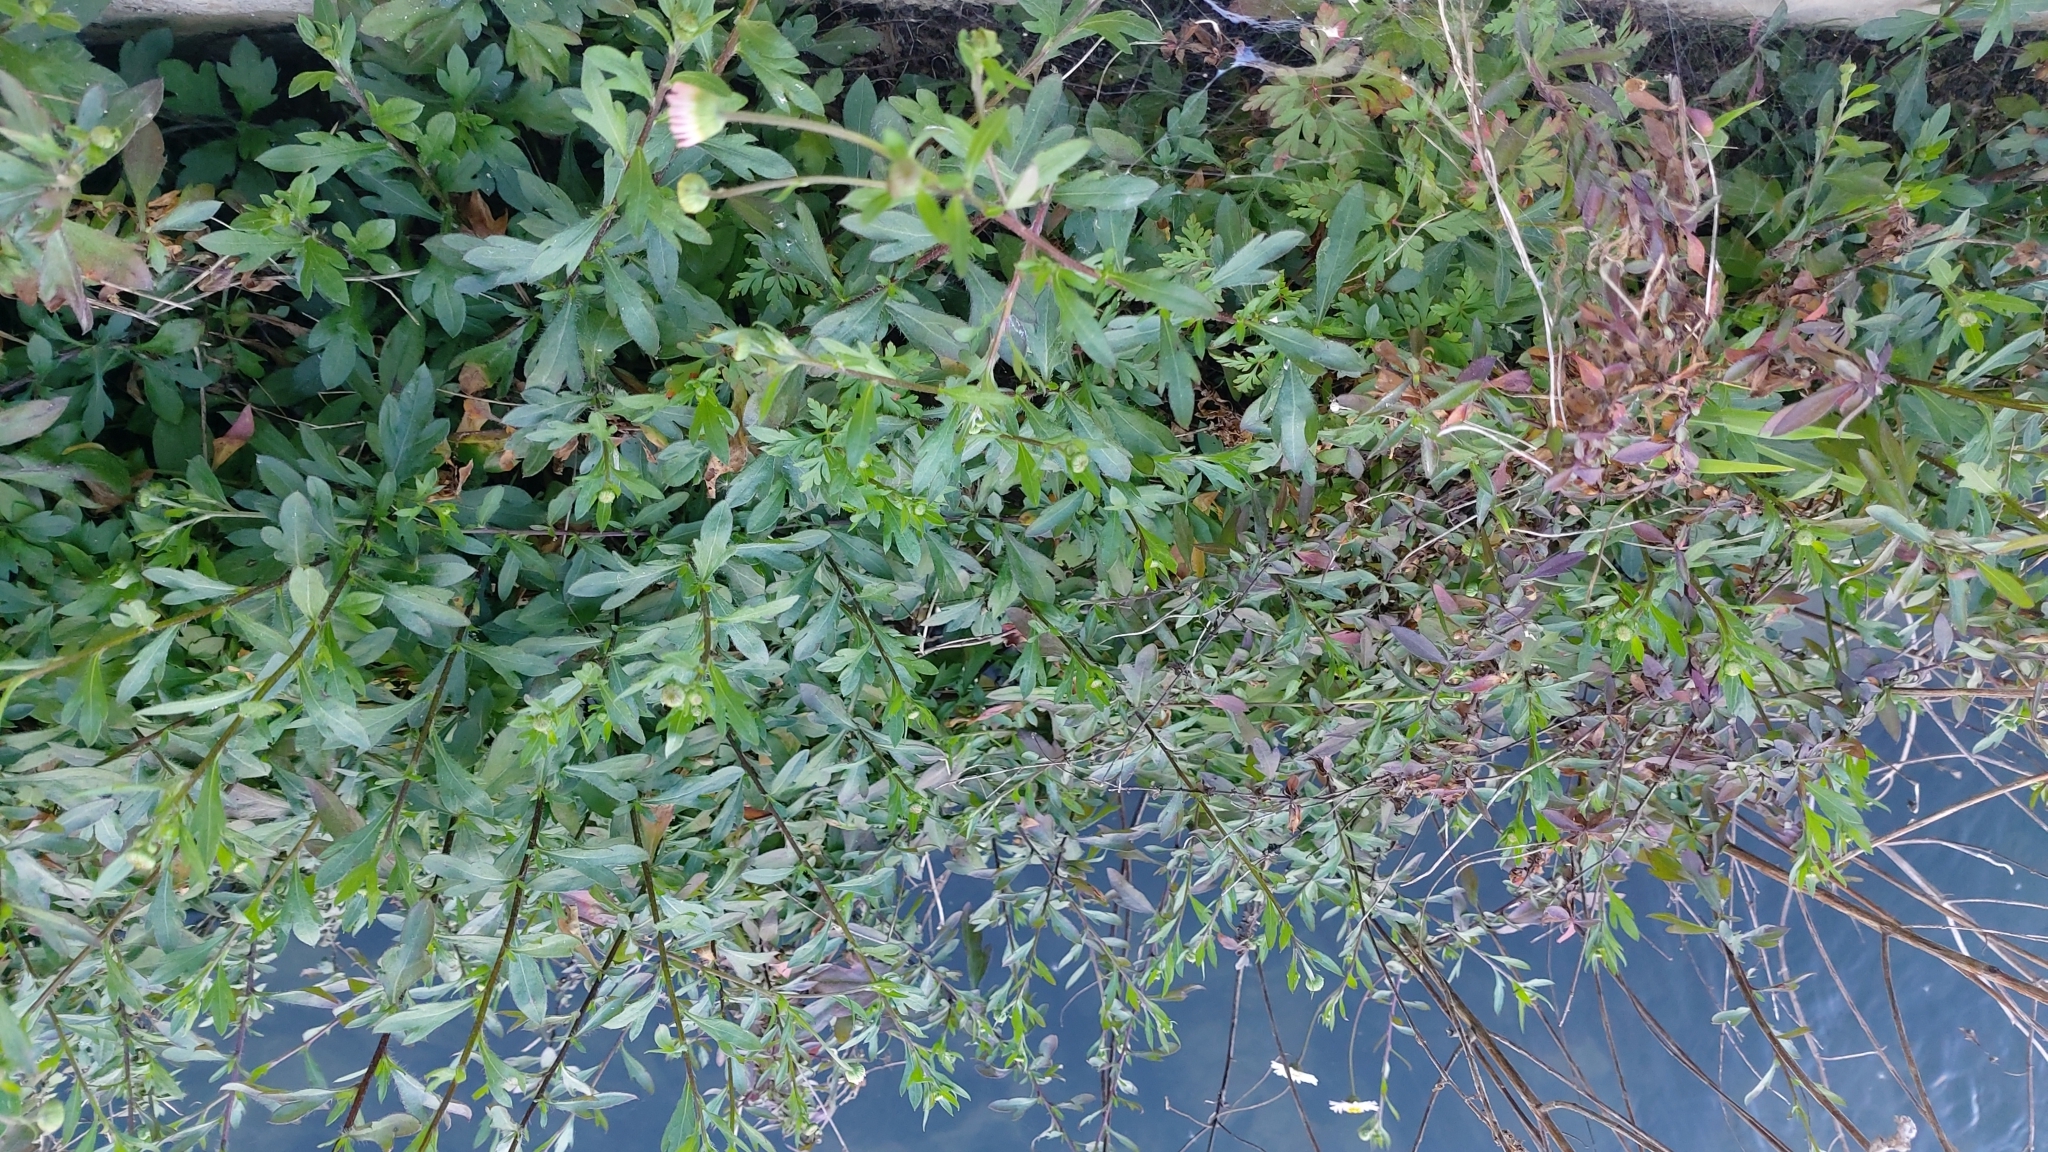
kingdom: Plantae
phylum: Tracheophyta
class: Magnoliopsida
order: Asterales
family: Asteraceae
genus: Erigeron
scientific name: Erigeron karvinskianus
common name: Mexican fleabane
